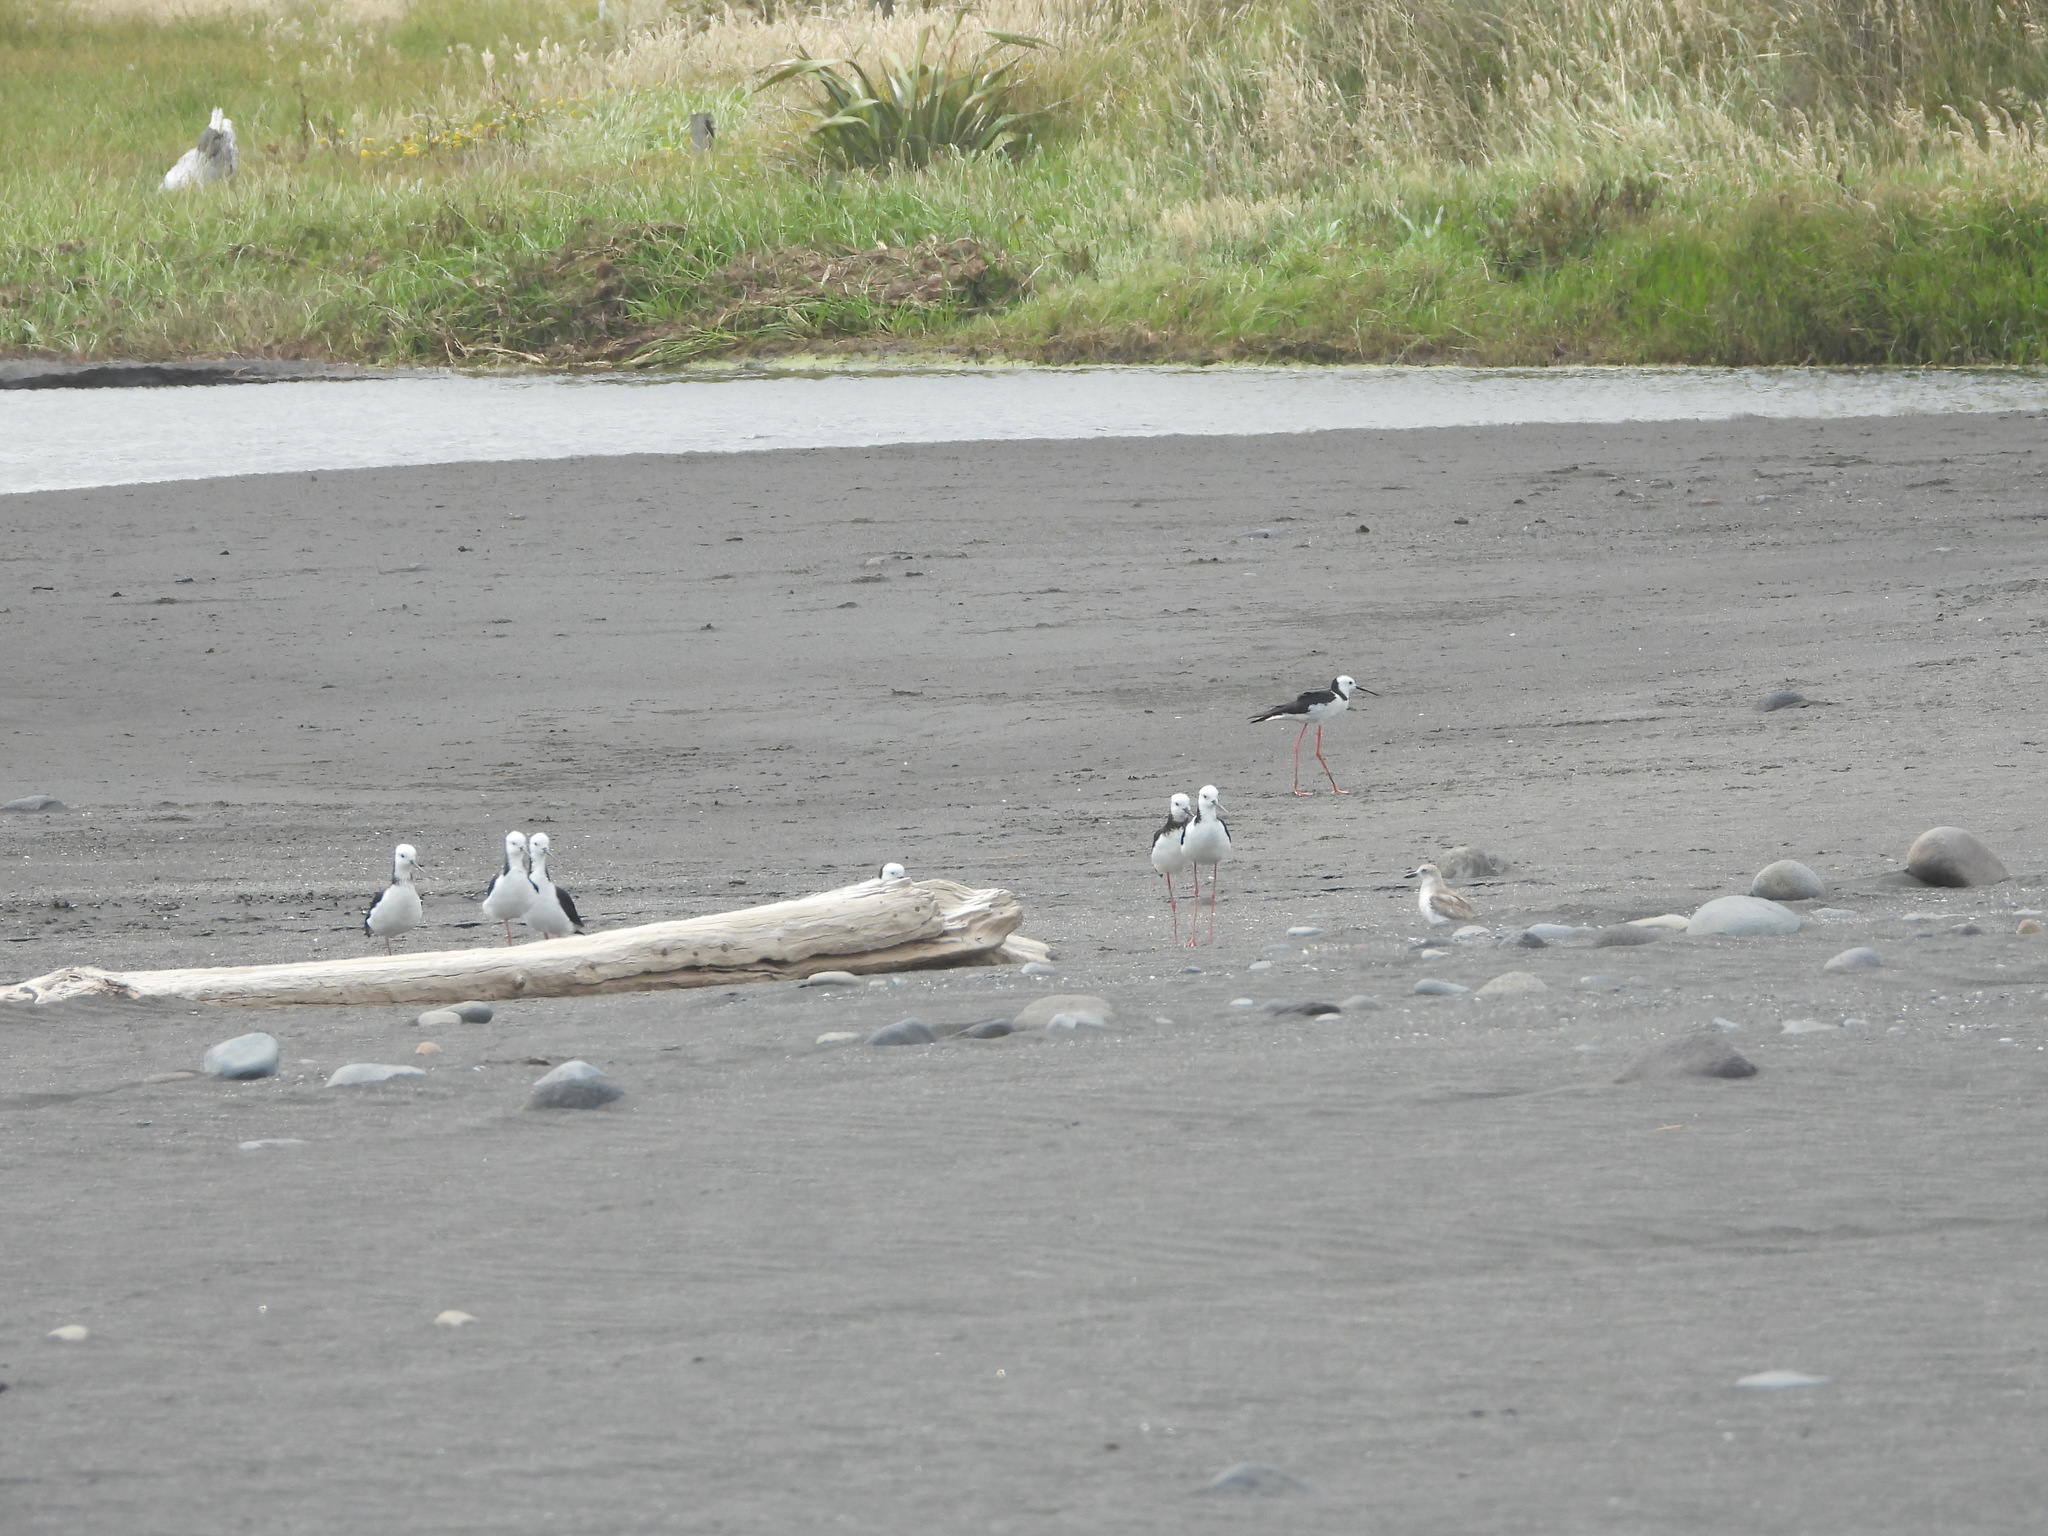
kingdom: Animalia
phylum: Chordata
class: Aves
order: Charadriiformes
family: Recurvirostridae
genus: Himantopus
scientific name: Himantopus leucocephalus
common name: White-headed stilt
